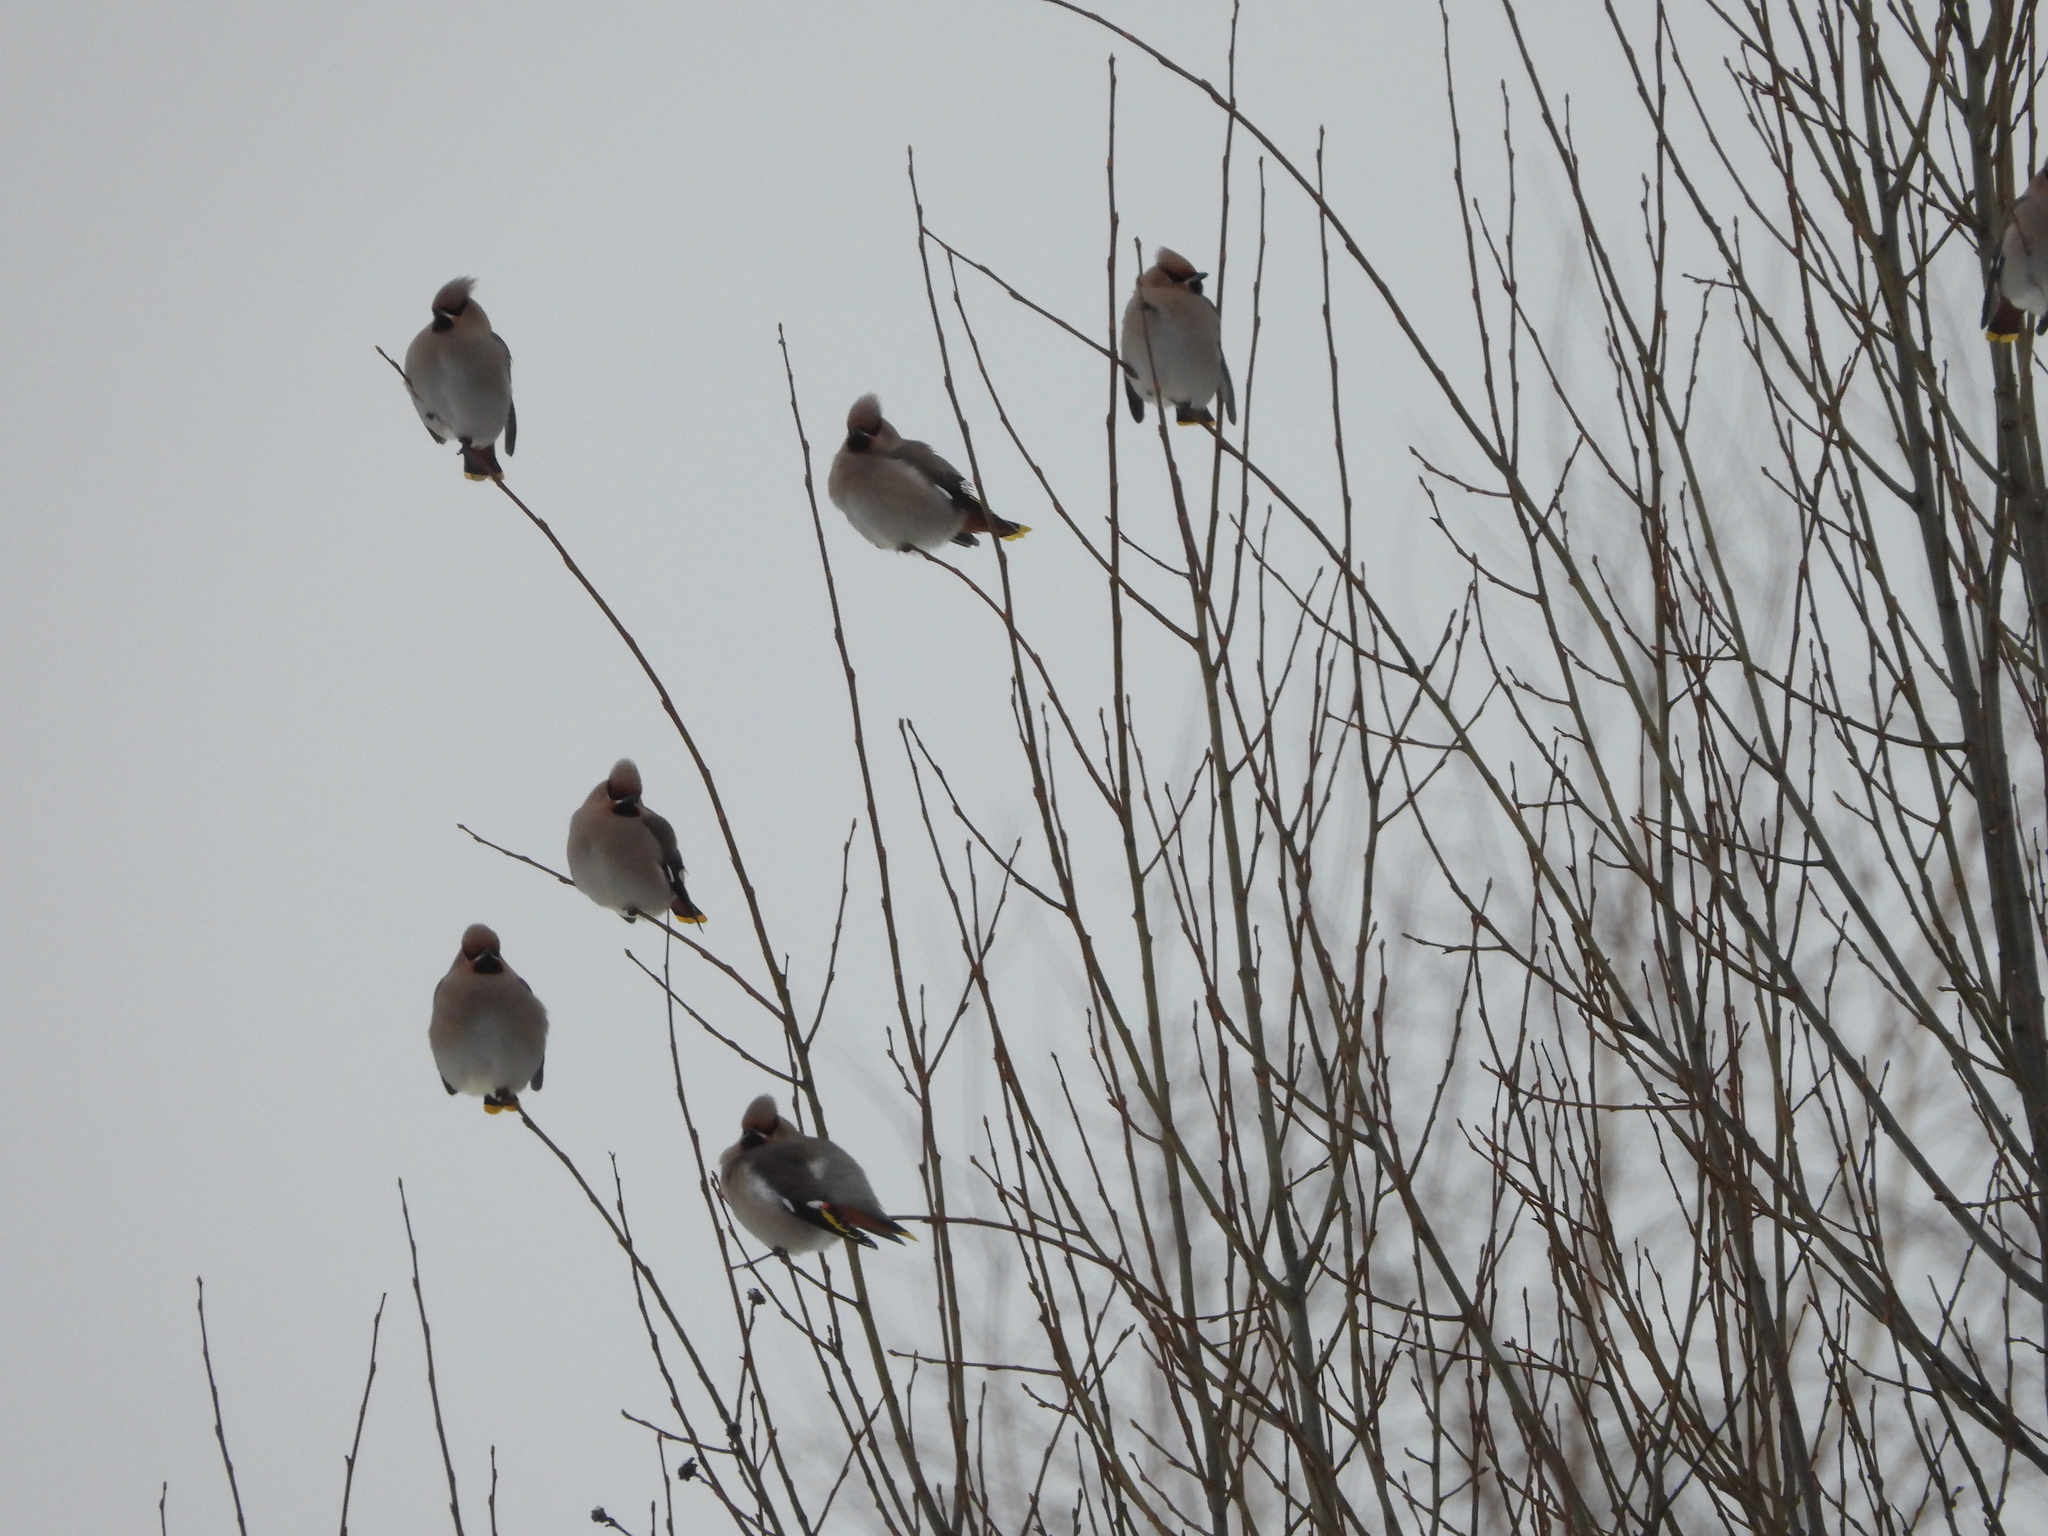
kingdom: Animalia
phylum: Chordata
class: Aves
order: Passeriformes
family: Bombycillidae
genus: Bombycilla
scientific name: Bombycilla garrulus
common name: Bohemian waxwing
